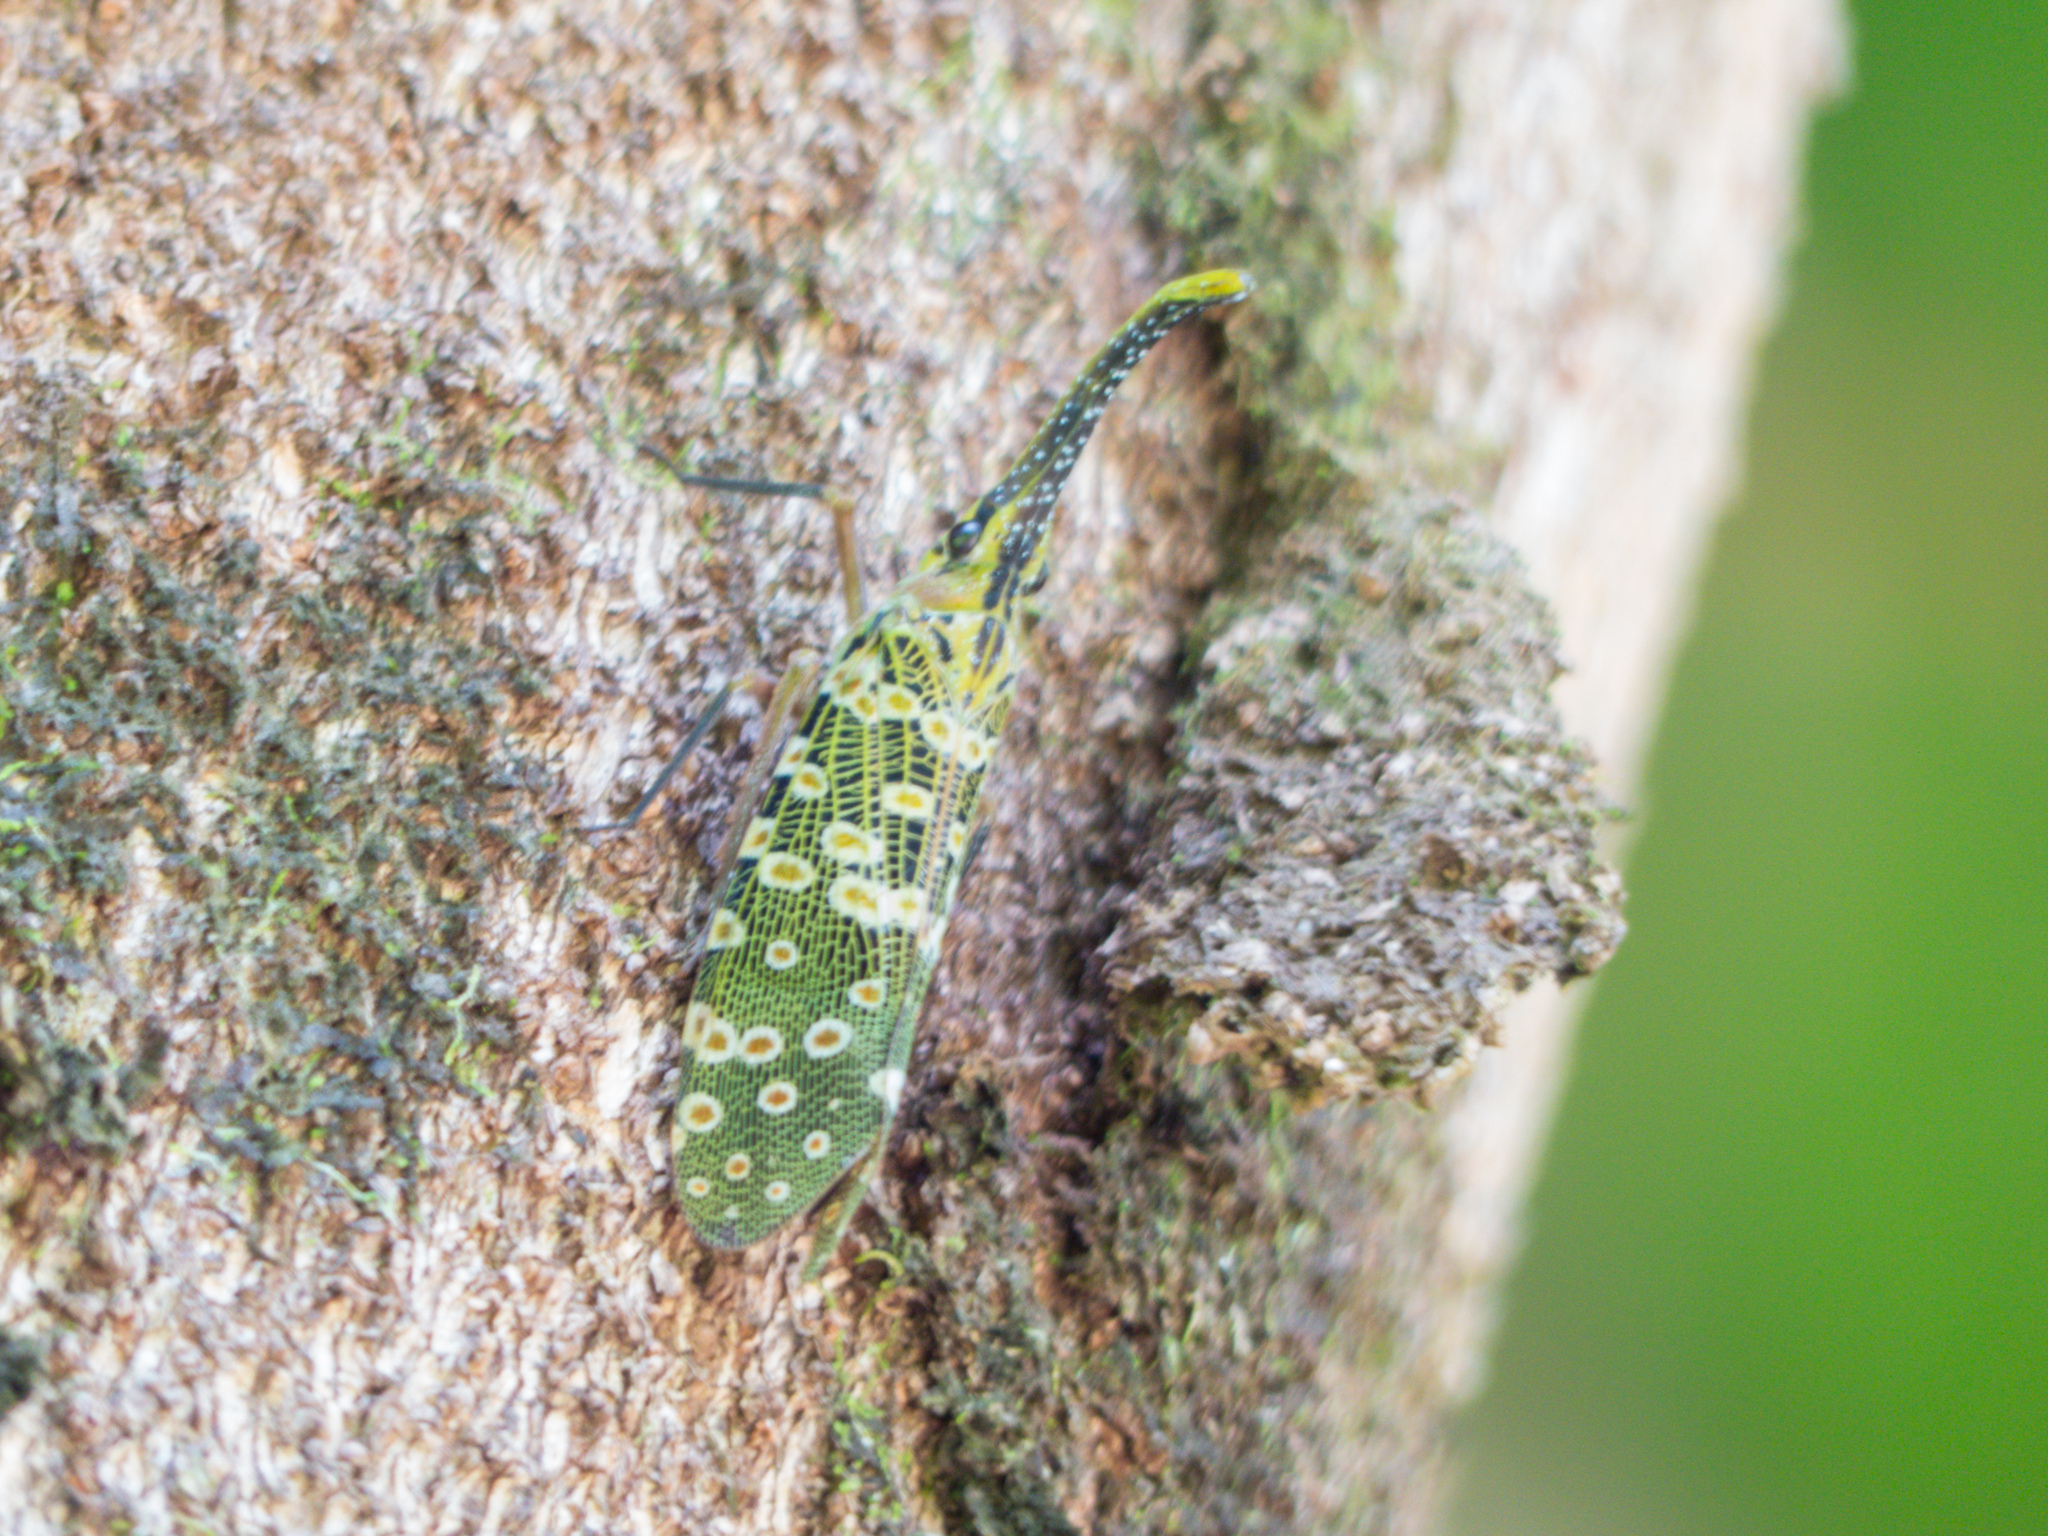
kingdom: Animalia
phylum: Arthropoda
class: Insecta
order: Hemiptera
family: Fulgoridae
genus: Pyrops
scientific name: Pyrops condorinus
